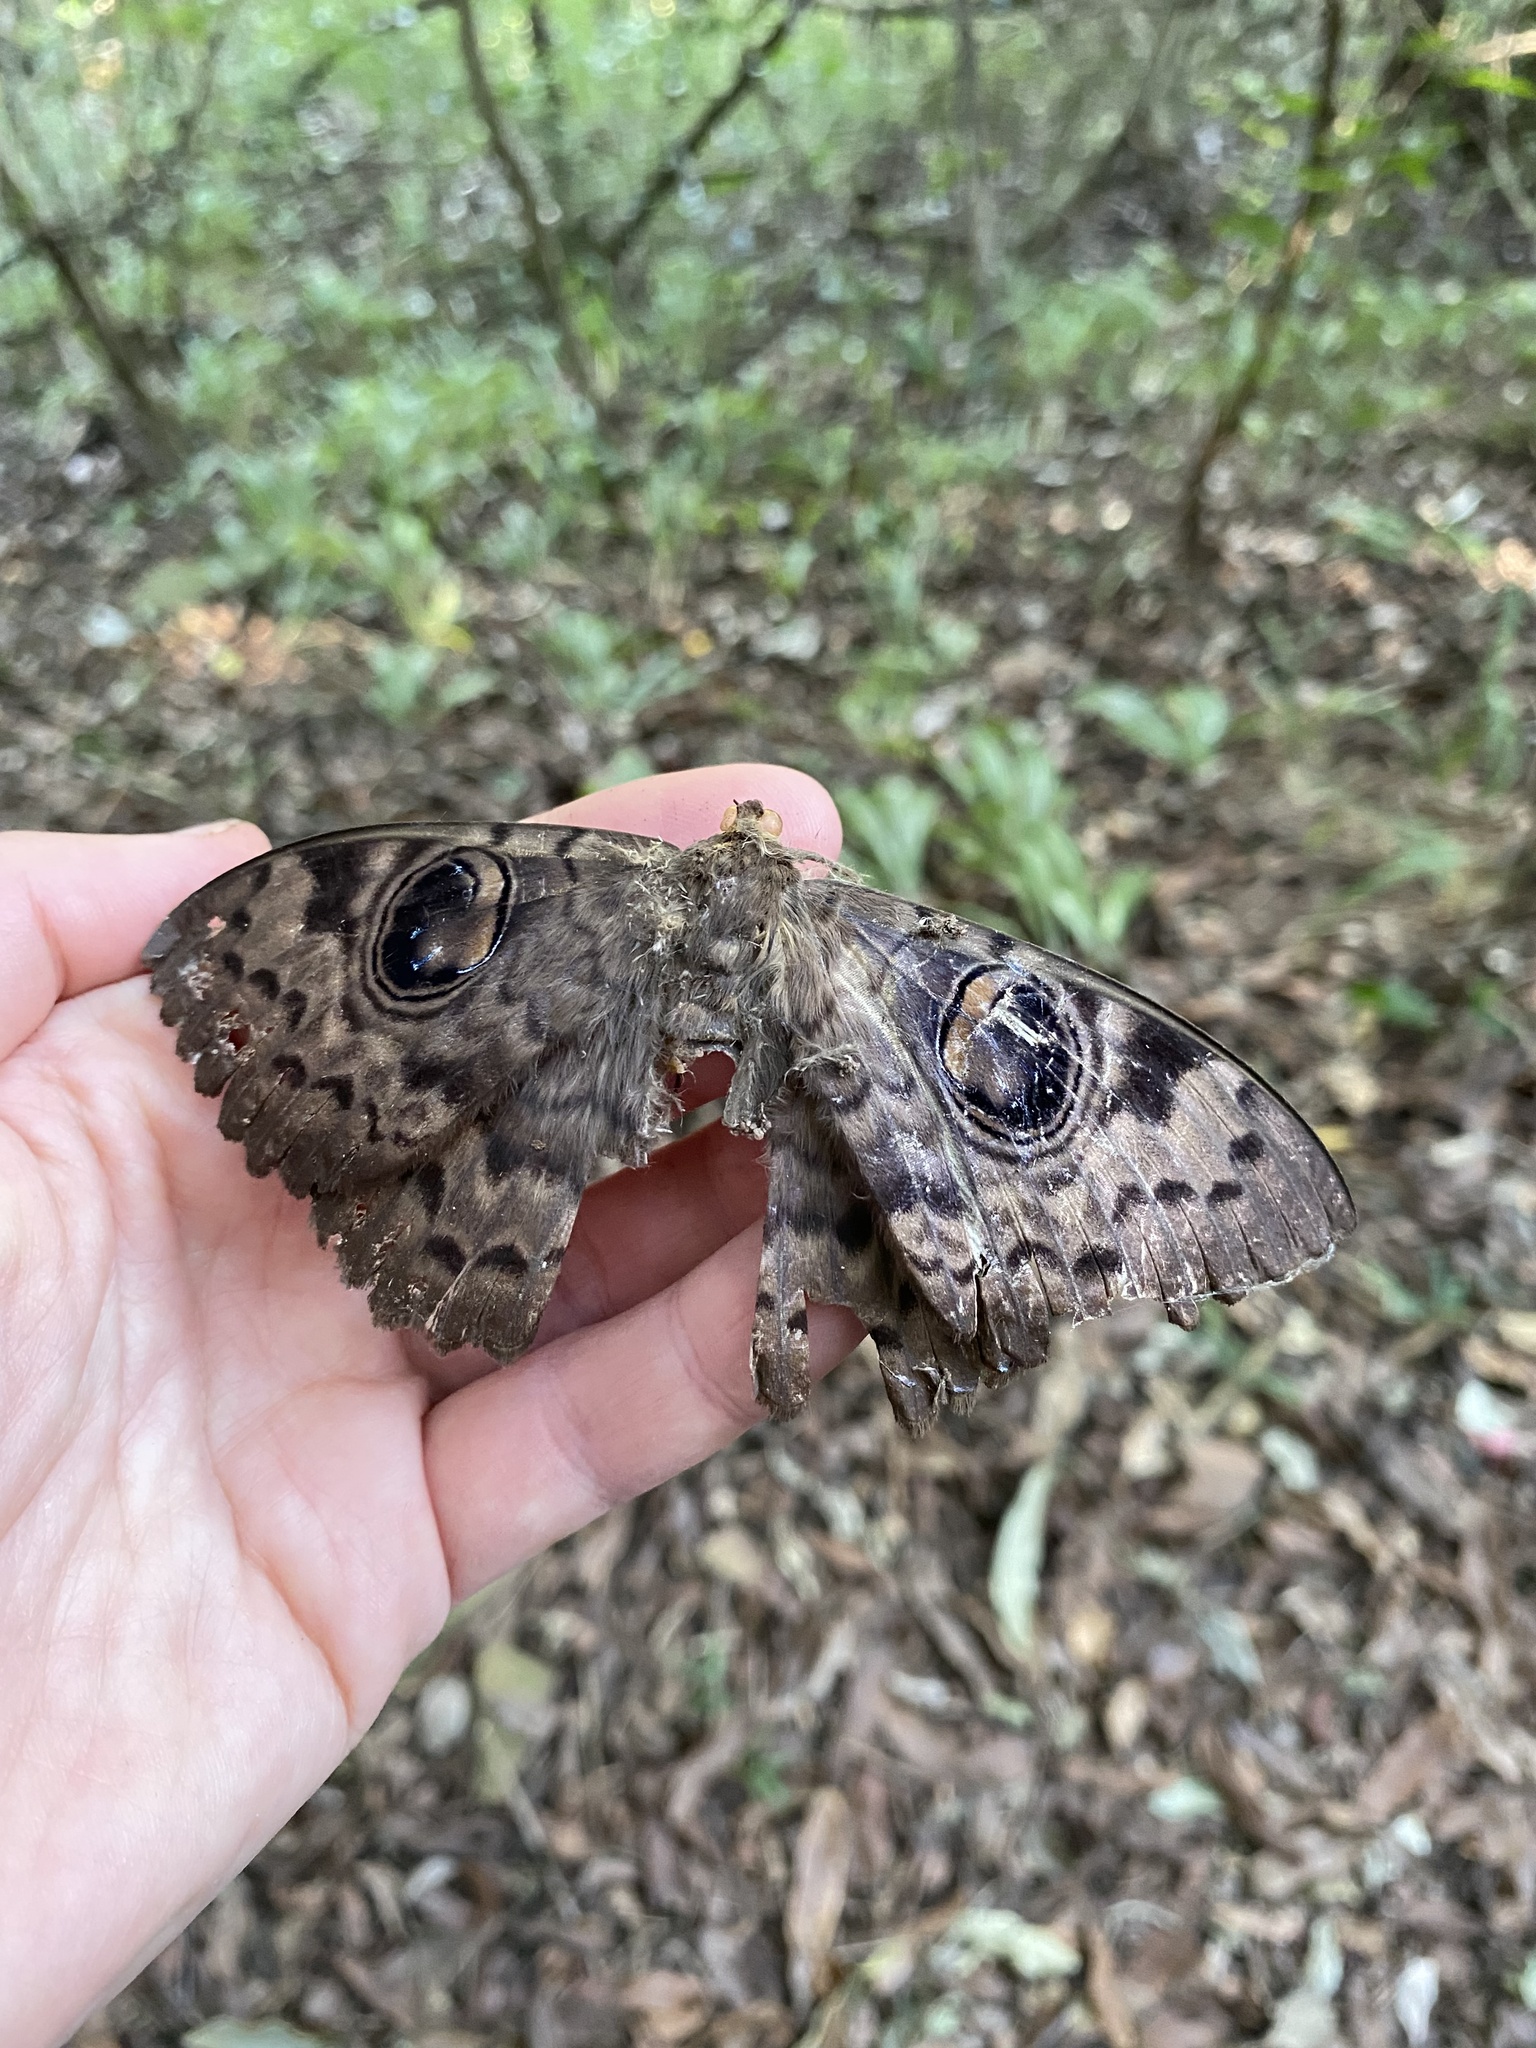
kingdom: Animalia
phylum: Arthropoda
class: Insecta
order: Lepidoptera
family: Erebidae
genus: Erebus
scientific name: Erebus walkeri
